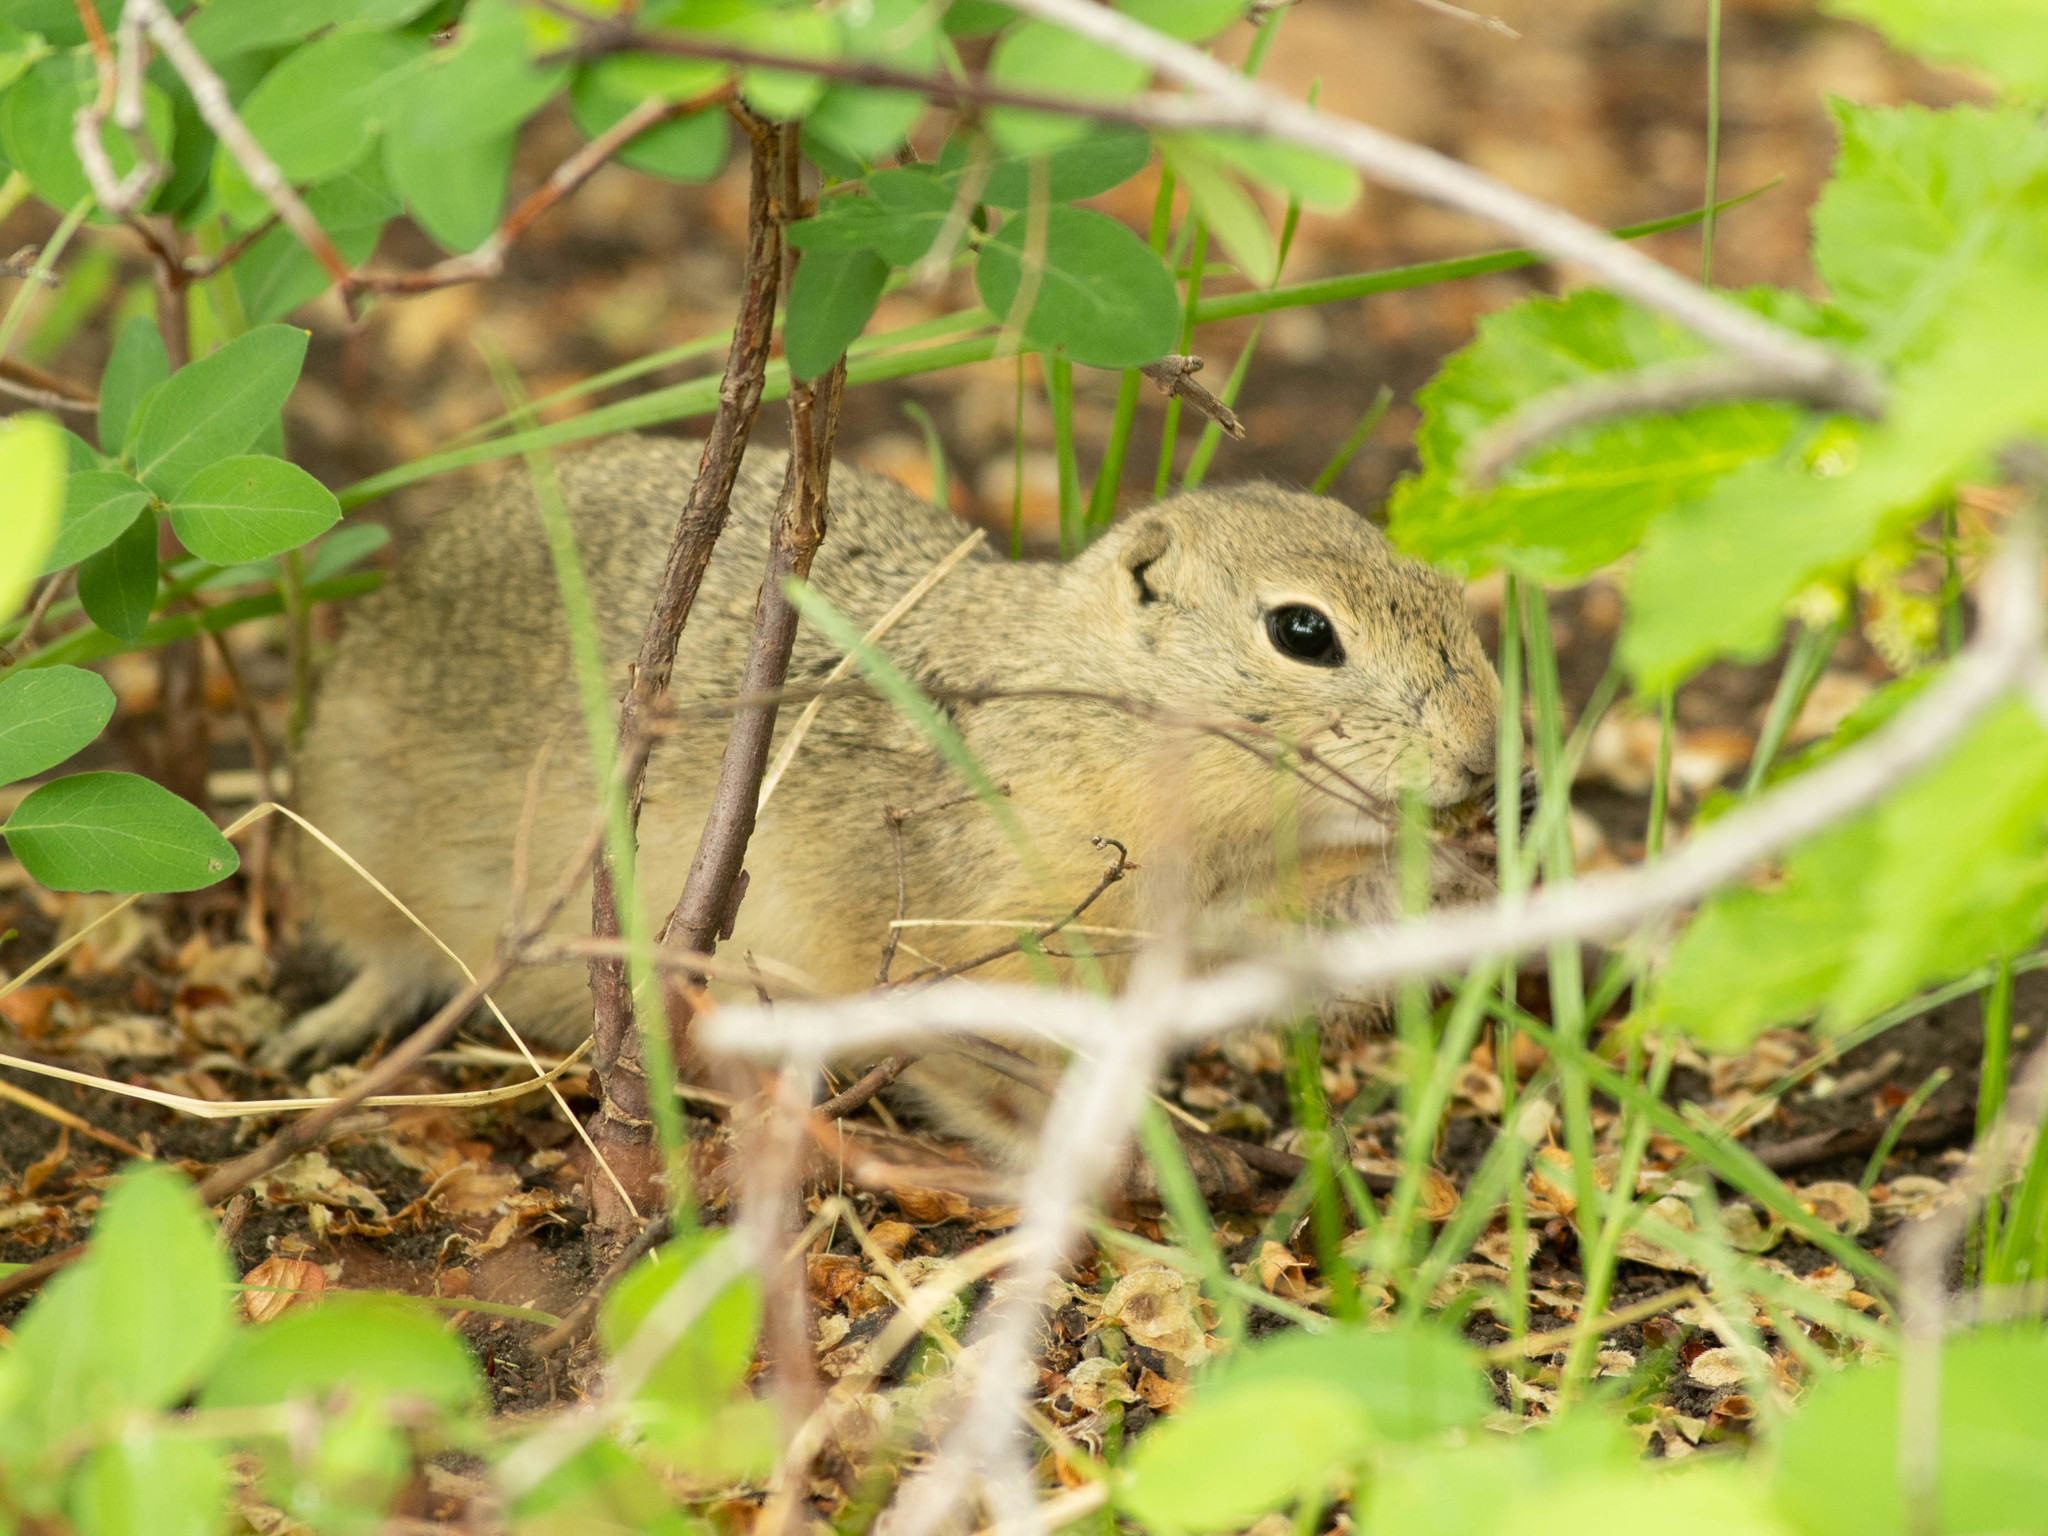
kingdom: Animalia
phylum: Chordata
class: Mammalia
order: Rodentia
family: Sciuridae
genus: Urocitellus
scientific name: Urocitellus richardsonii
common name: Richardson's ground squirrel
